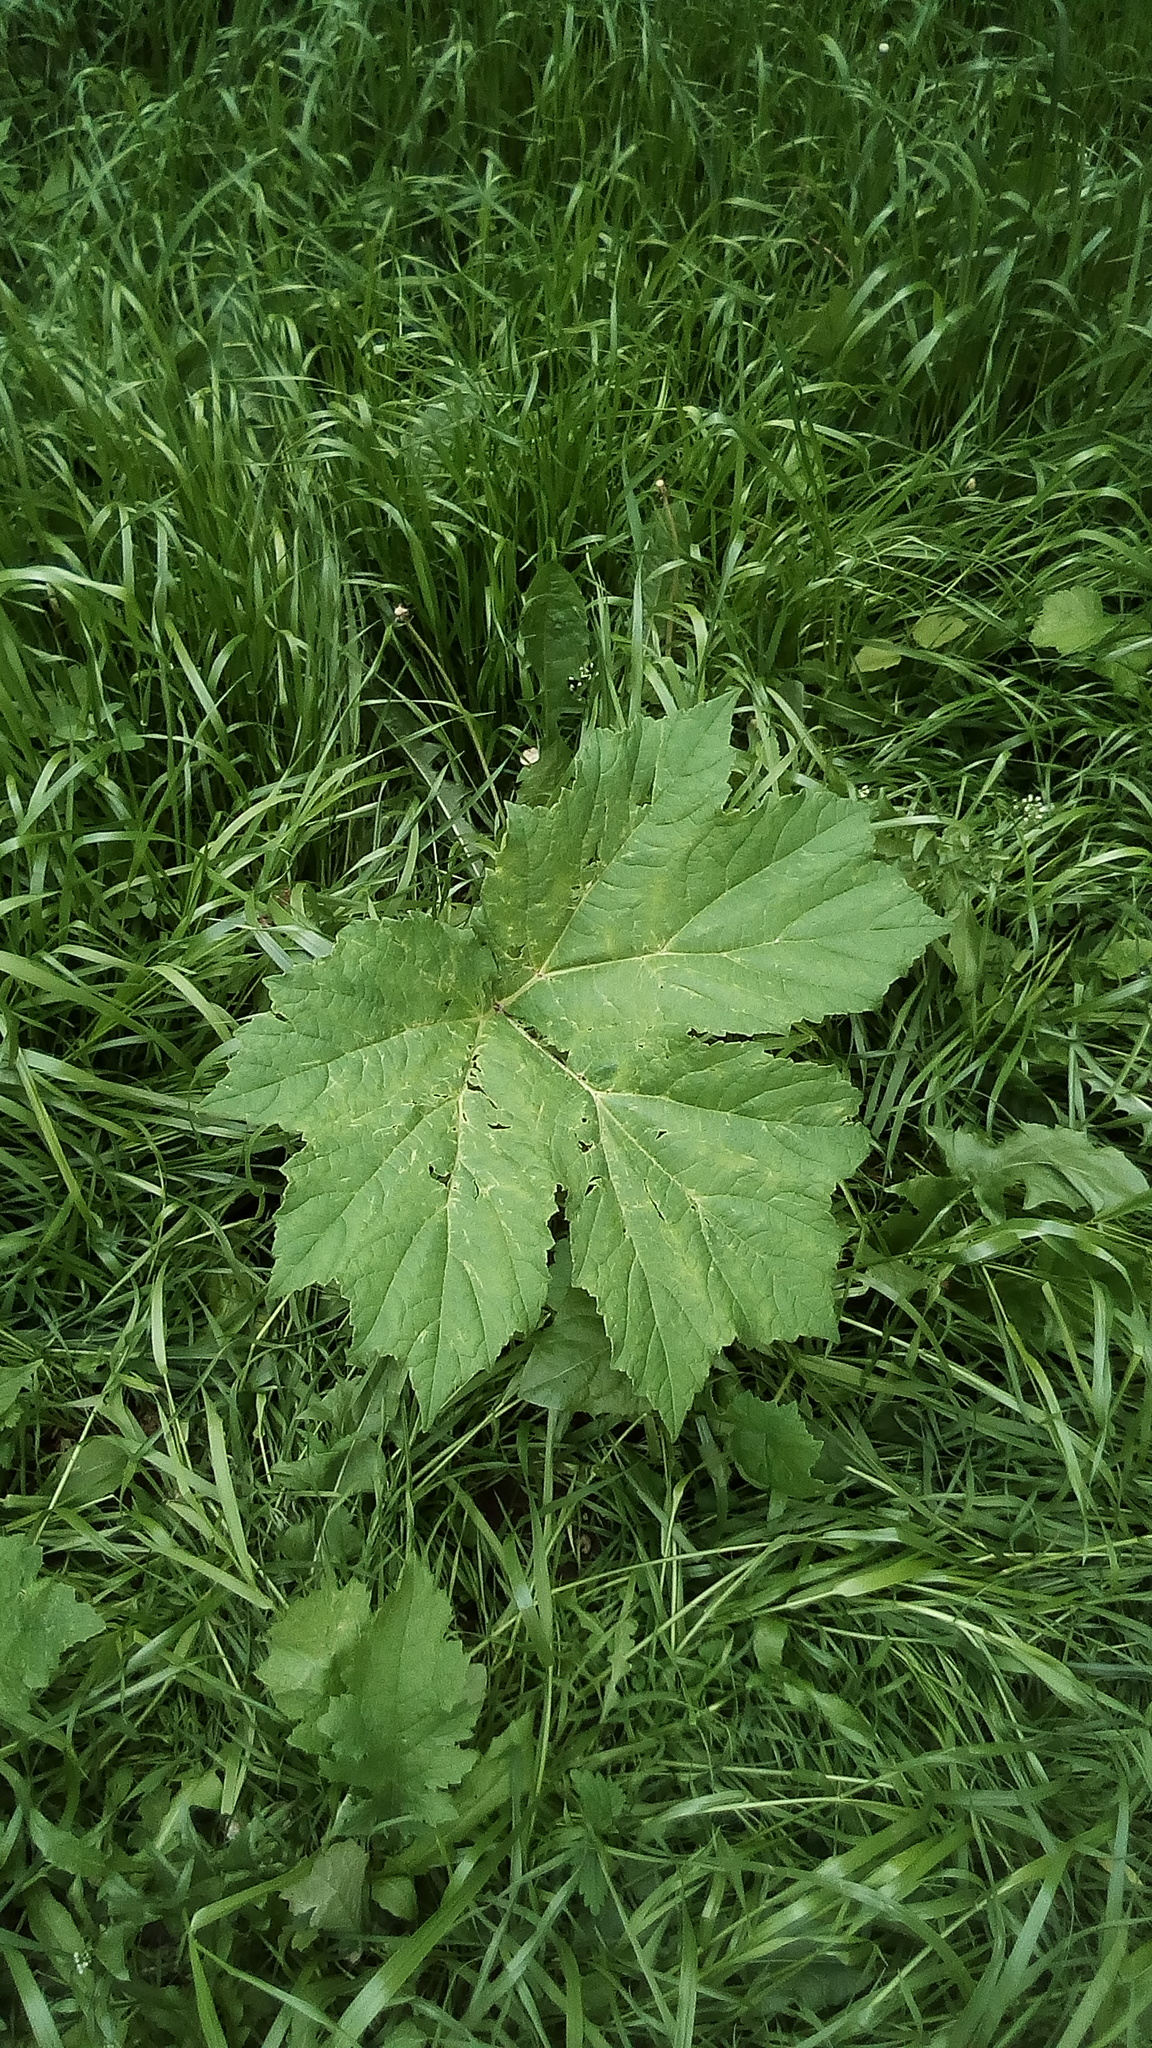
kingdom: Plantae
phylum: Tracheophyta
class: Magnoliopsida
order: Apiales
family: Apiaceae
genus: Heracleum
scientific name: Heracleum sosnowskyi
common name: Sosnowsky's hogweed
